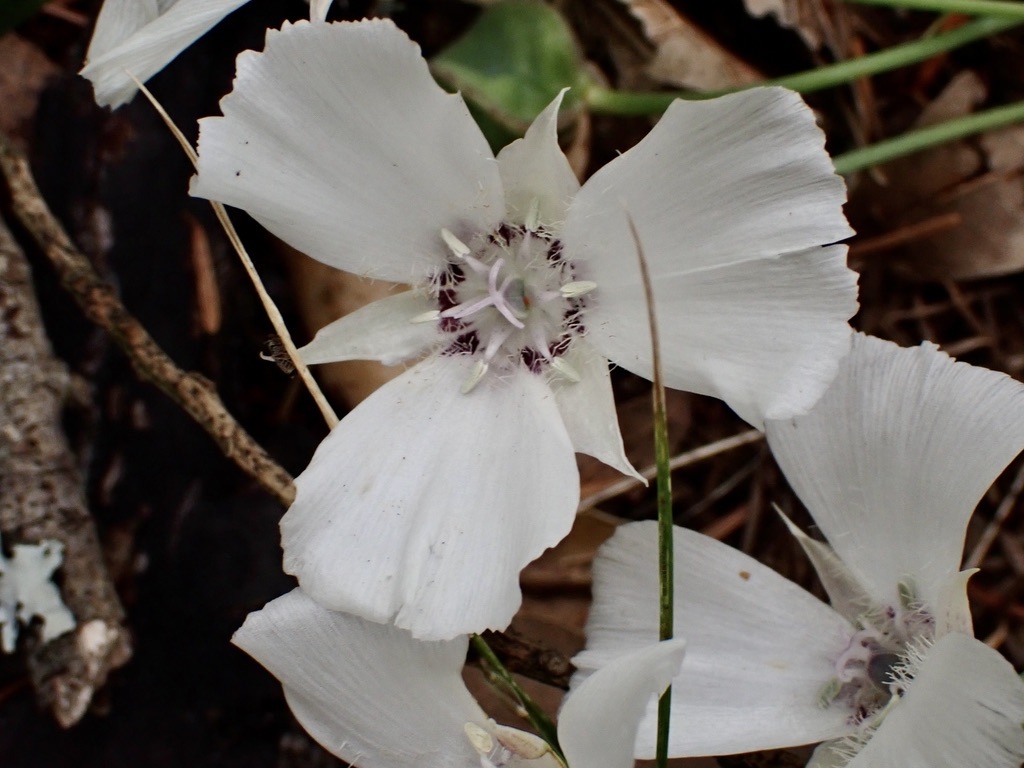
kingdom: Plantae
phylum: Tracheophyta
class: Liliopsida
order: Liliales
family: Liliaceae
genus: Calochortus
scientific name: Calochortus umbellatus
